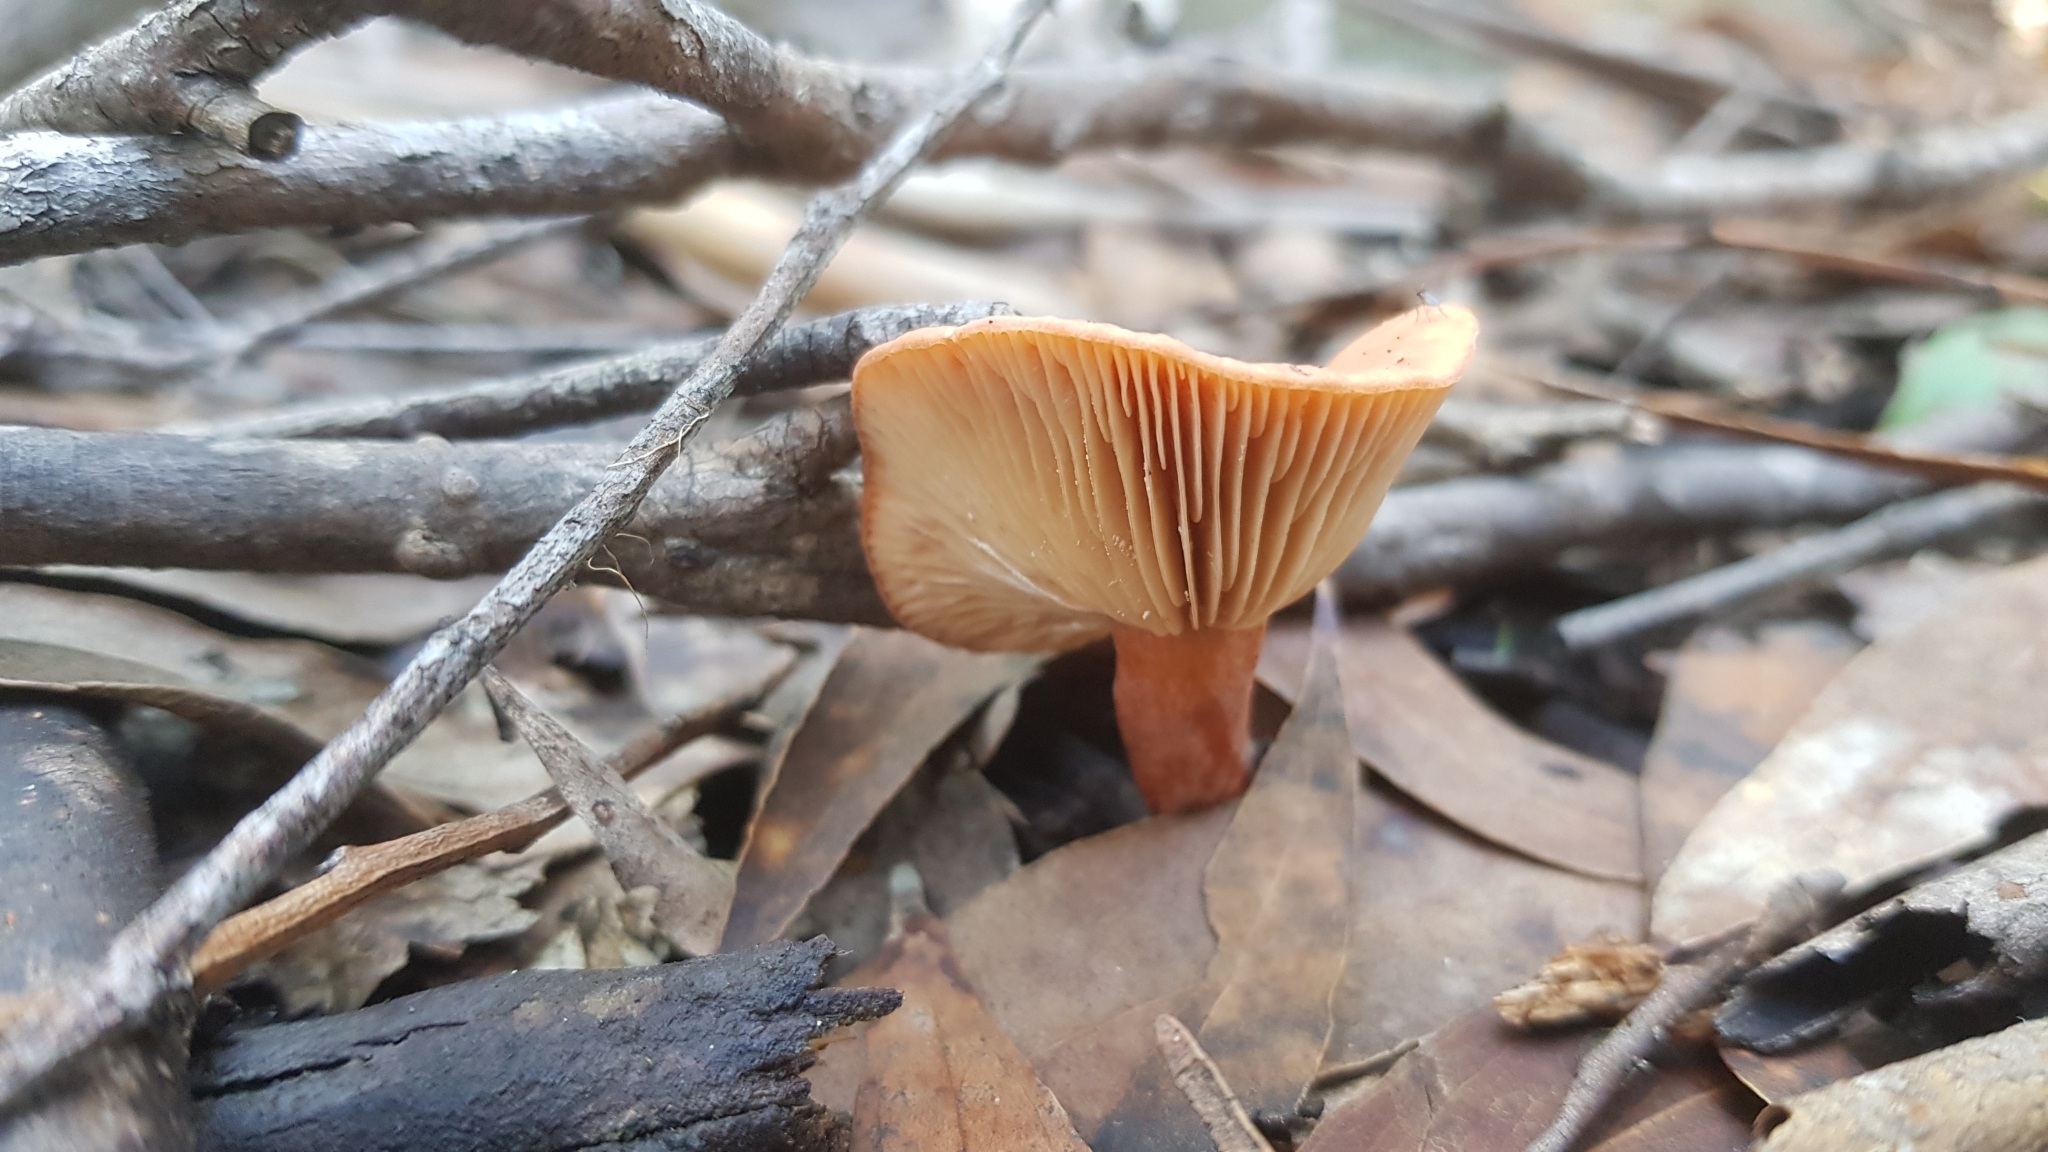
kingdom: Fungi
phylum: Basidiomycota
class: Agaricomycetes
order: Russulales
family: Russulaceae
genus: Lactarius
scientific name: Lactarius eucalypti
